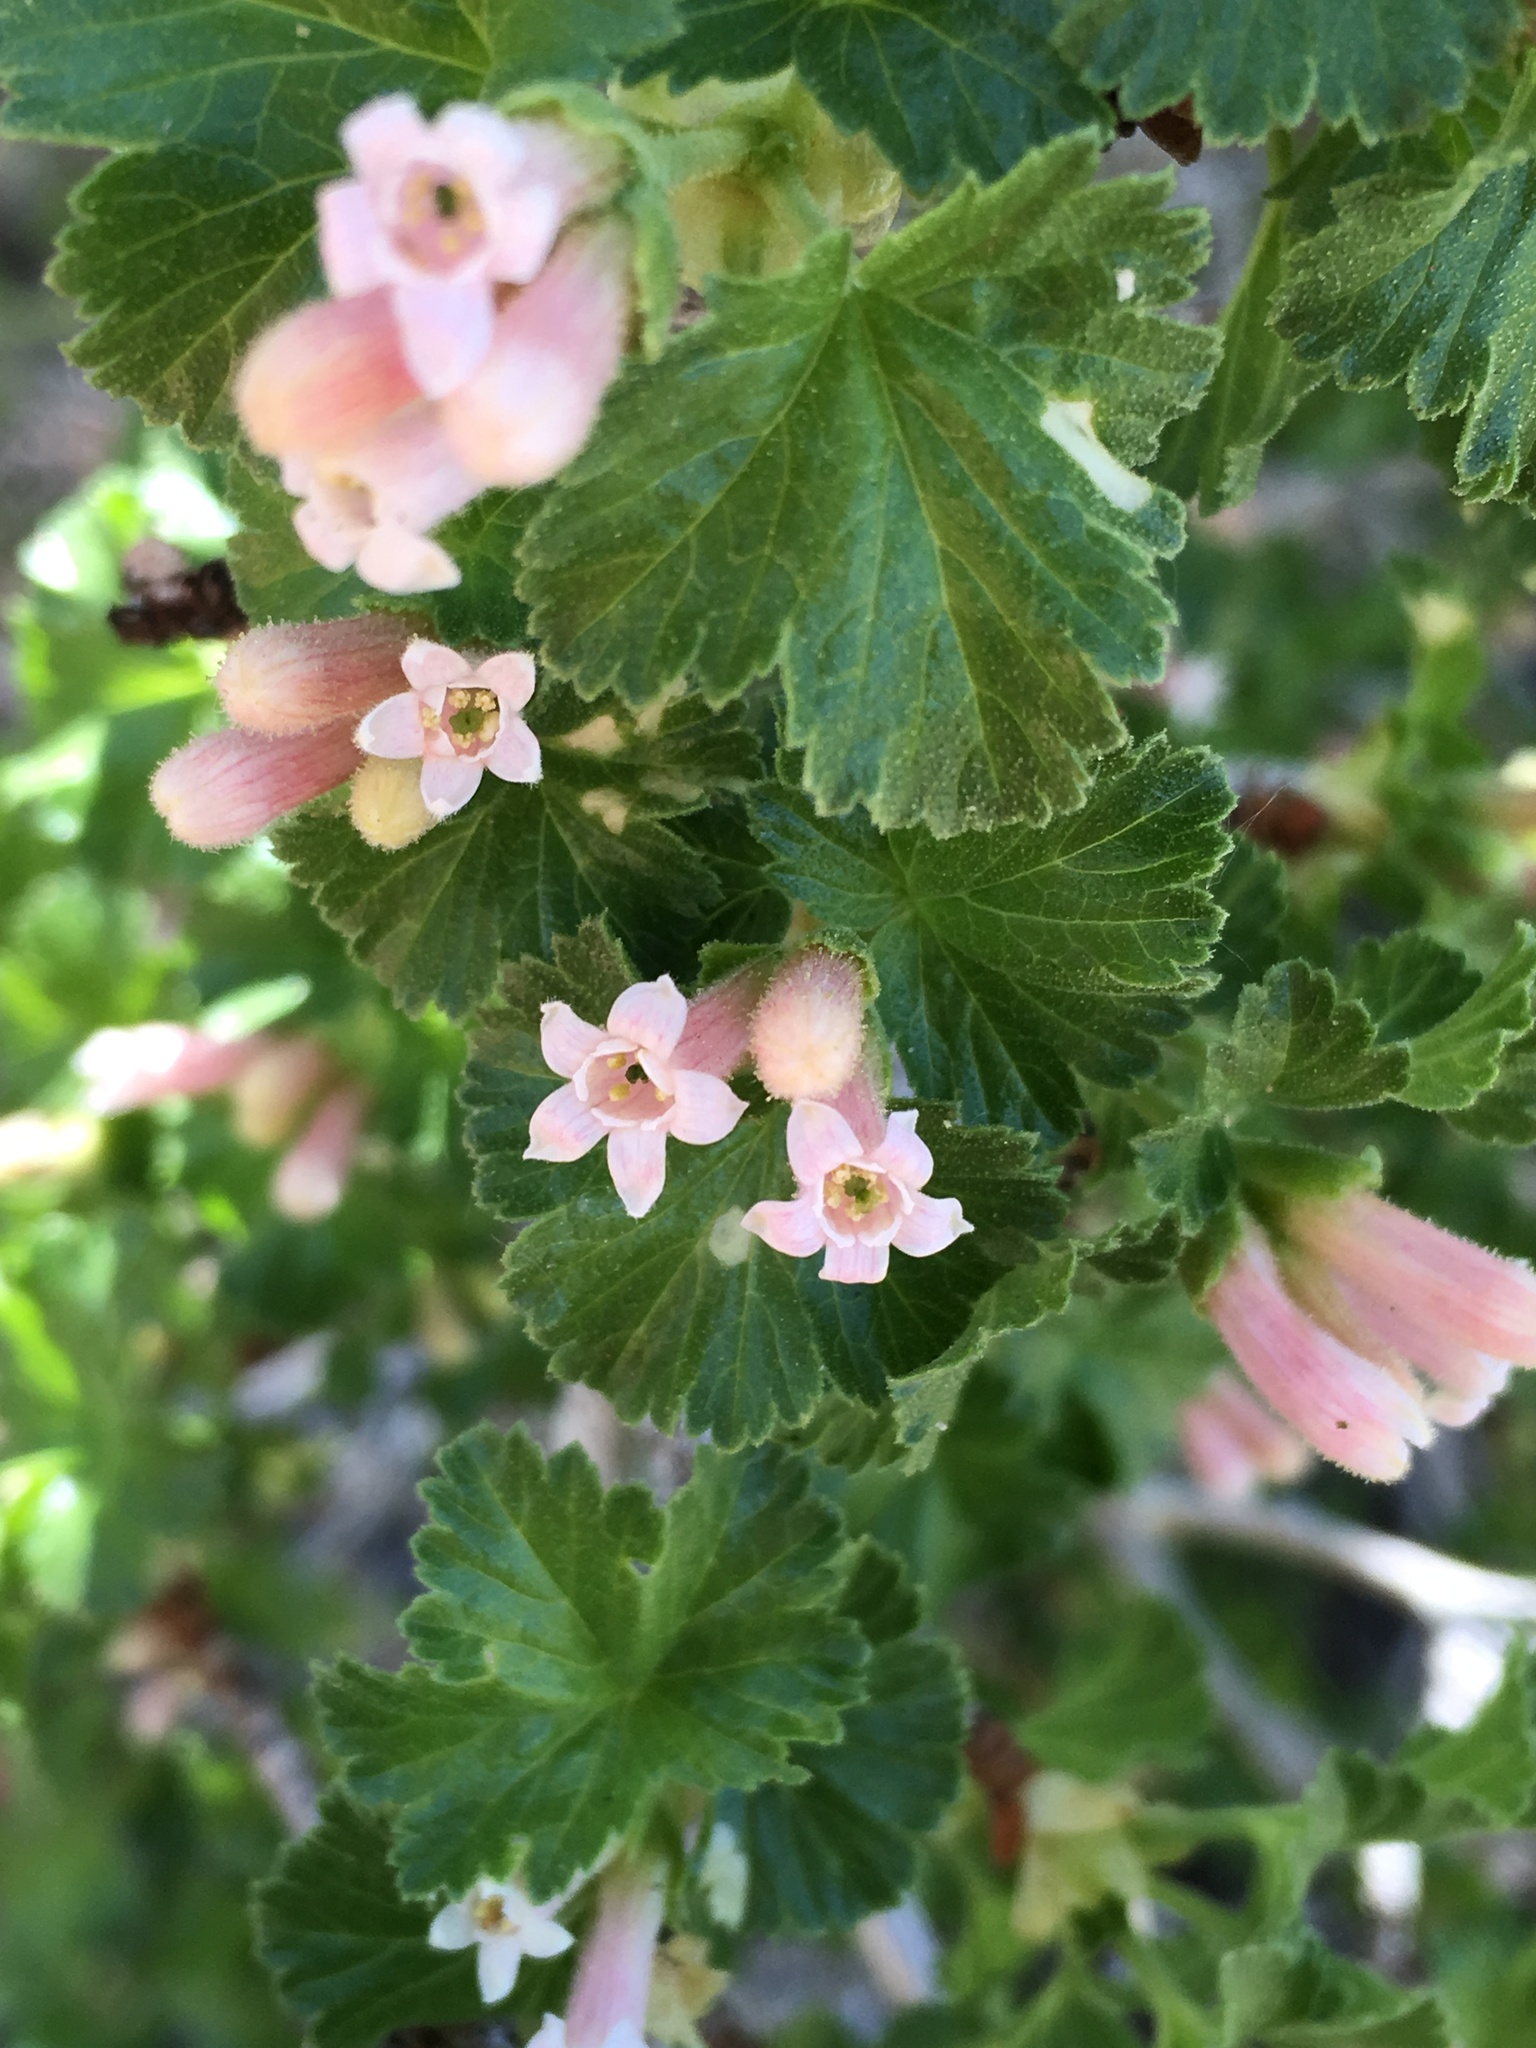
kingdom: Plantae
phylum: Tracheophyta
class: Magnoliopsida
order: Saxifragales
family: Grossulariaceae
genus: Ribes
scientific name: Ribes cereum
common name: Wax currant
